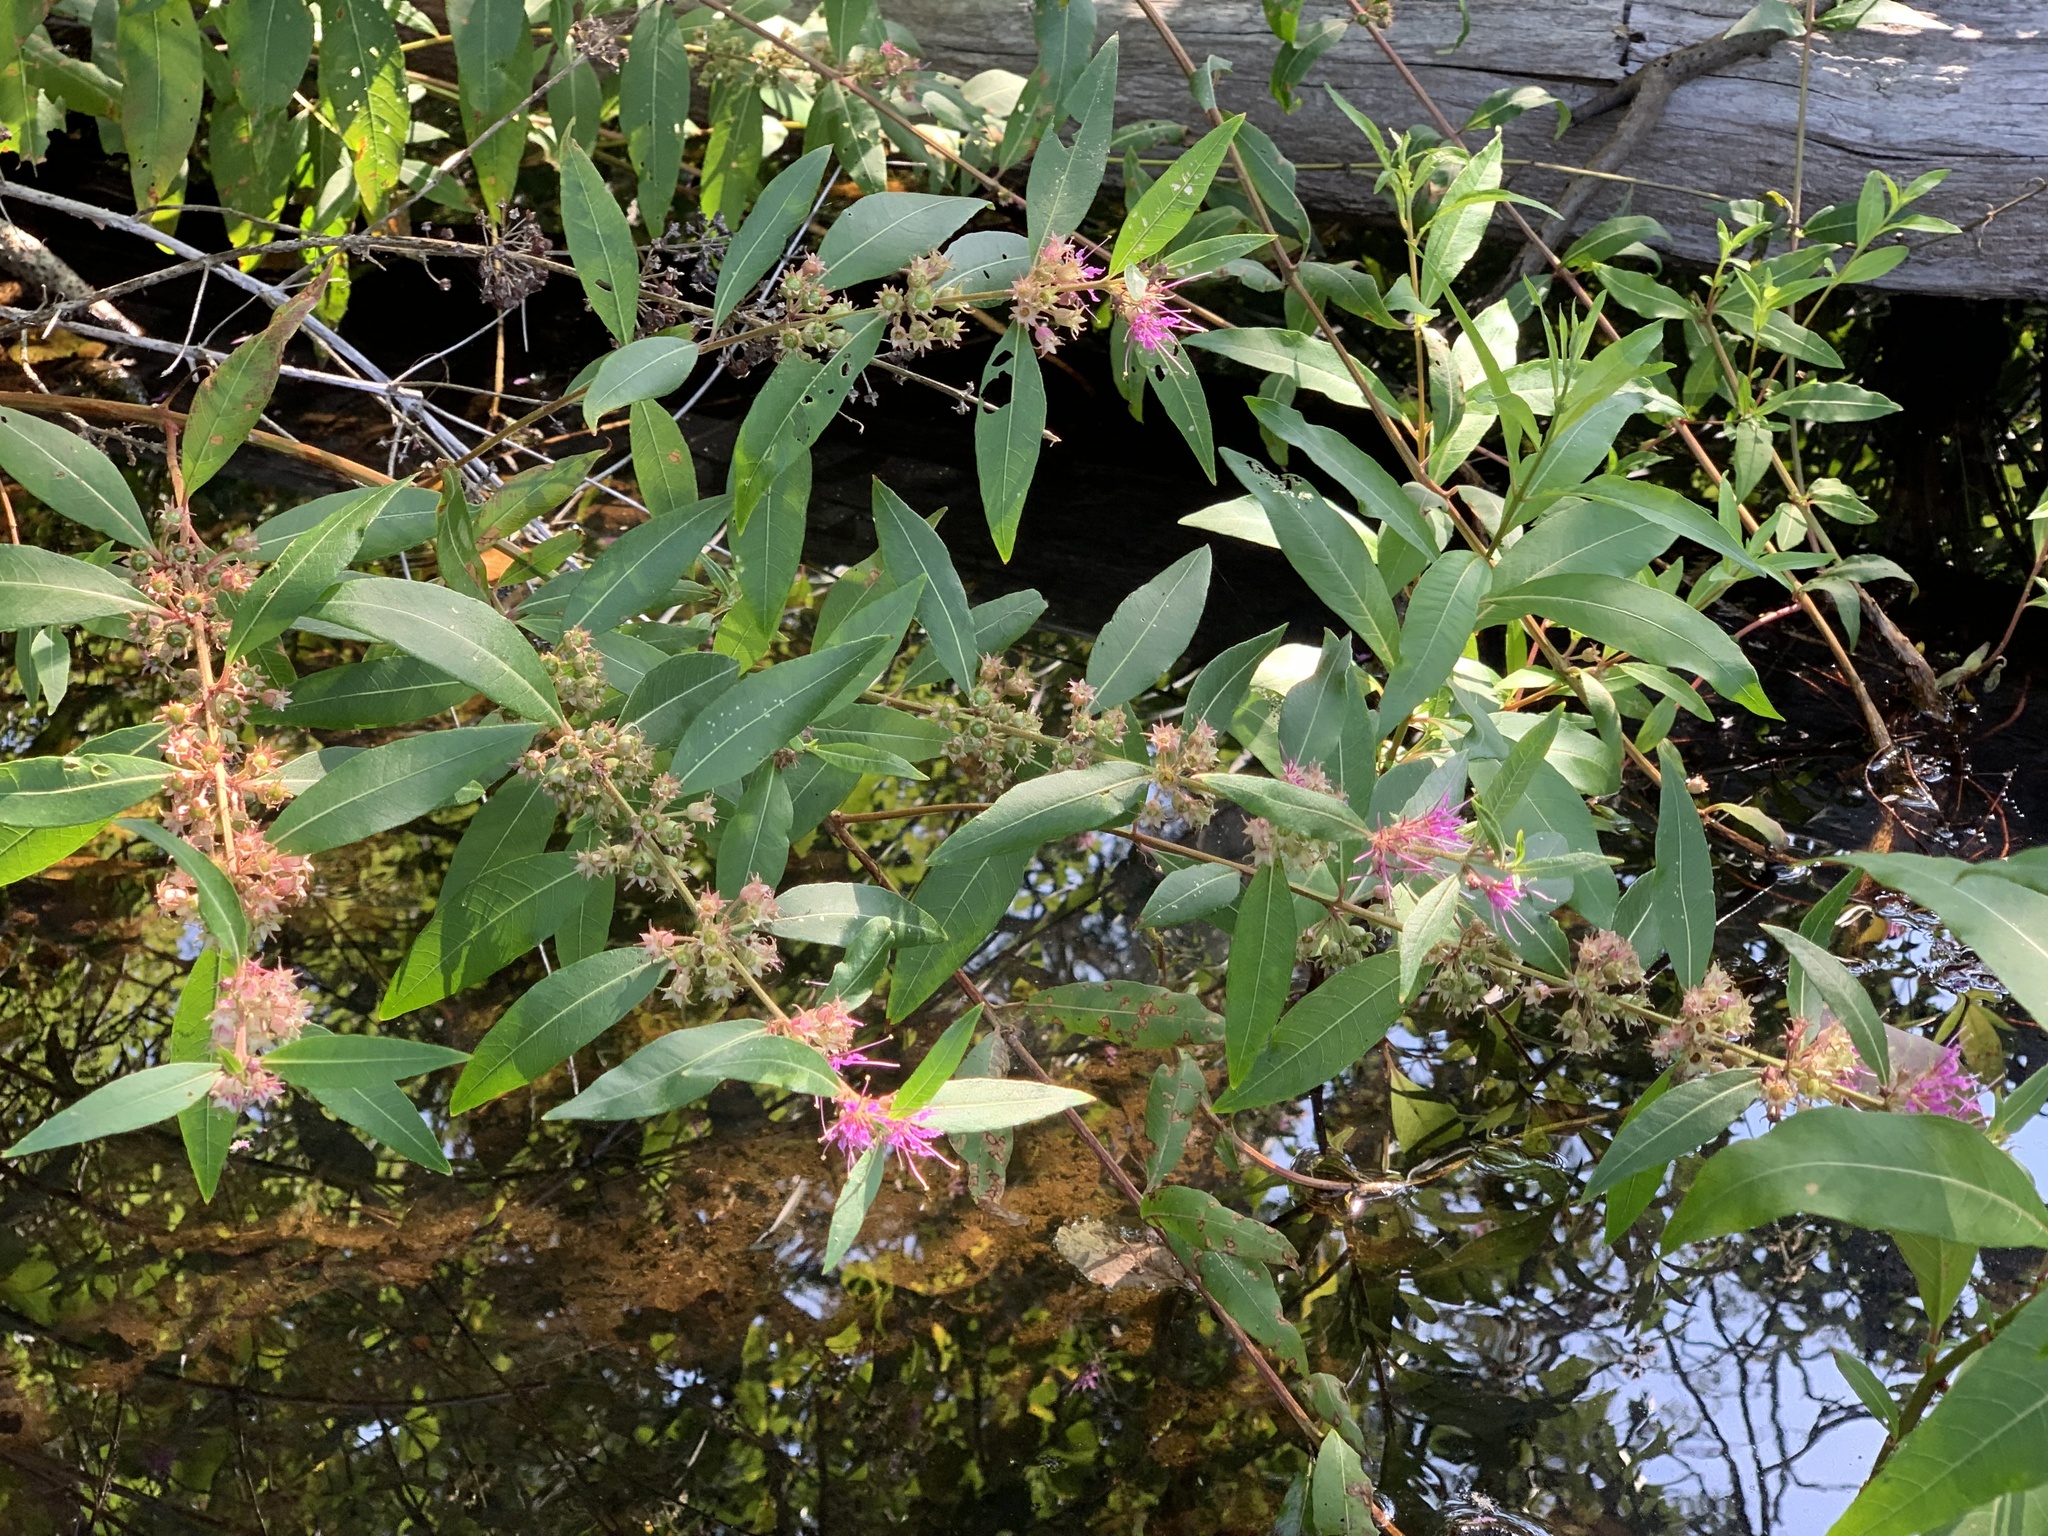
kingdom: Plantae
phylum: Tracheophyta
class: Magnoliopsida
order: Myrtales
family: Lythraceae
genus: Decodon
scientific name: Decodon verticillatus
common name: Hairy swamp loosestrife
